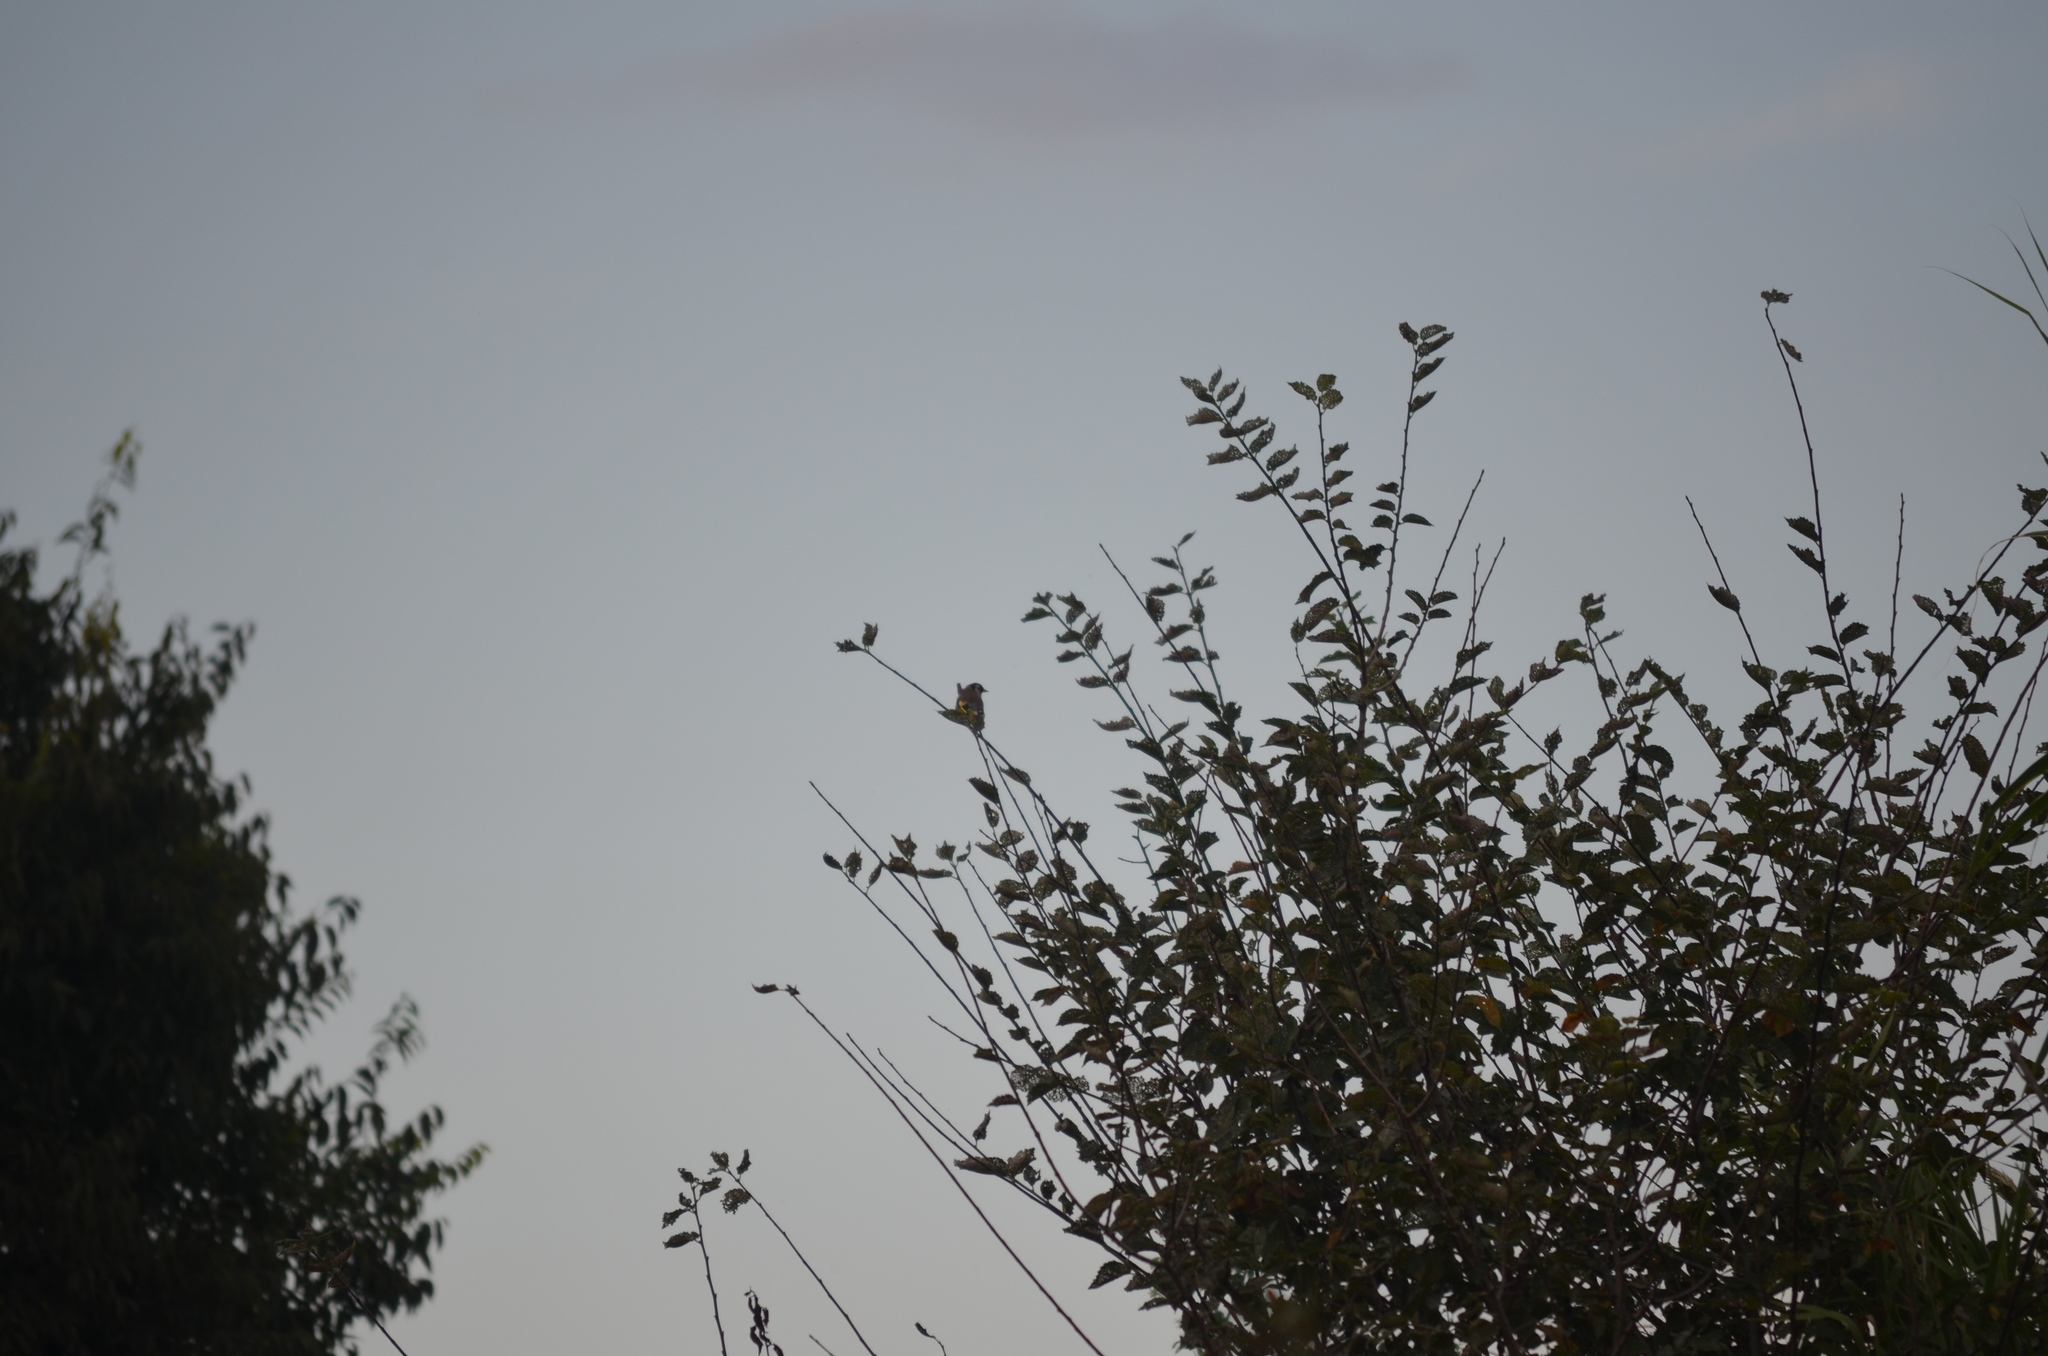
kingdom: Animalia
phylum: Chordata
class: Aves
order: Passeriformes
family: Fringillidae
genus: Carduelis
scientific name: Carduelis carduelis
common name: European goldfinch
